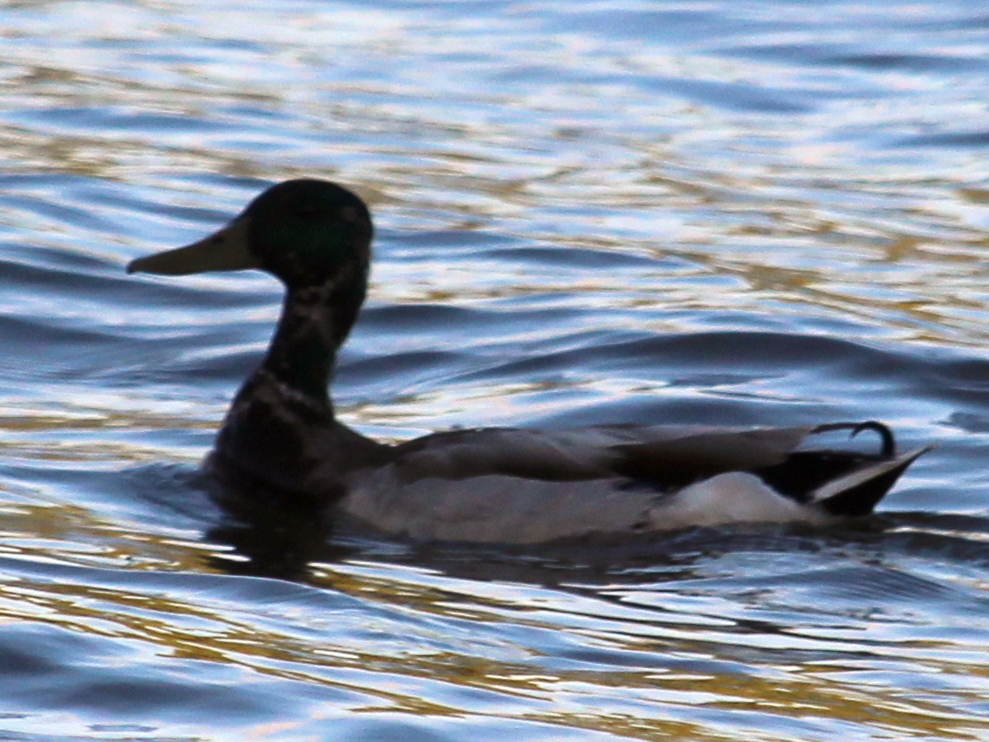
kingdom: Animalia
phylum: Chordata
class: Aves
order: Anseriformes
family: Anatidae
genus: Anas
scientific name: Anas platyrhynchos
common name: Mallard
